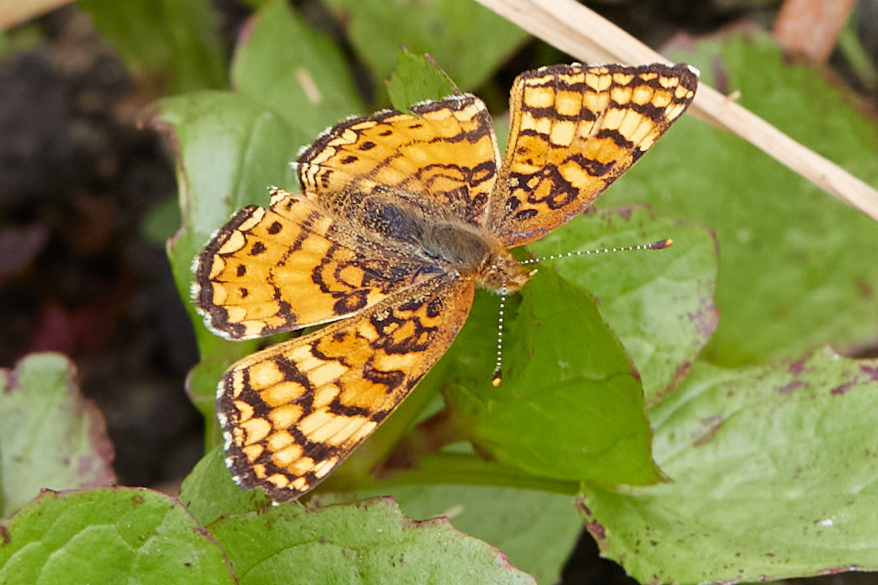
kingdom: Animalia
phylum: Arthropoda
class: Insecta
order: Lepidoptera
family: Nymphalidae
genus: Eresia
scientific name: Eresia aveyrona
